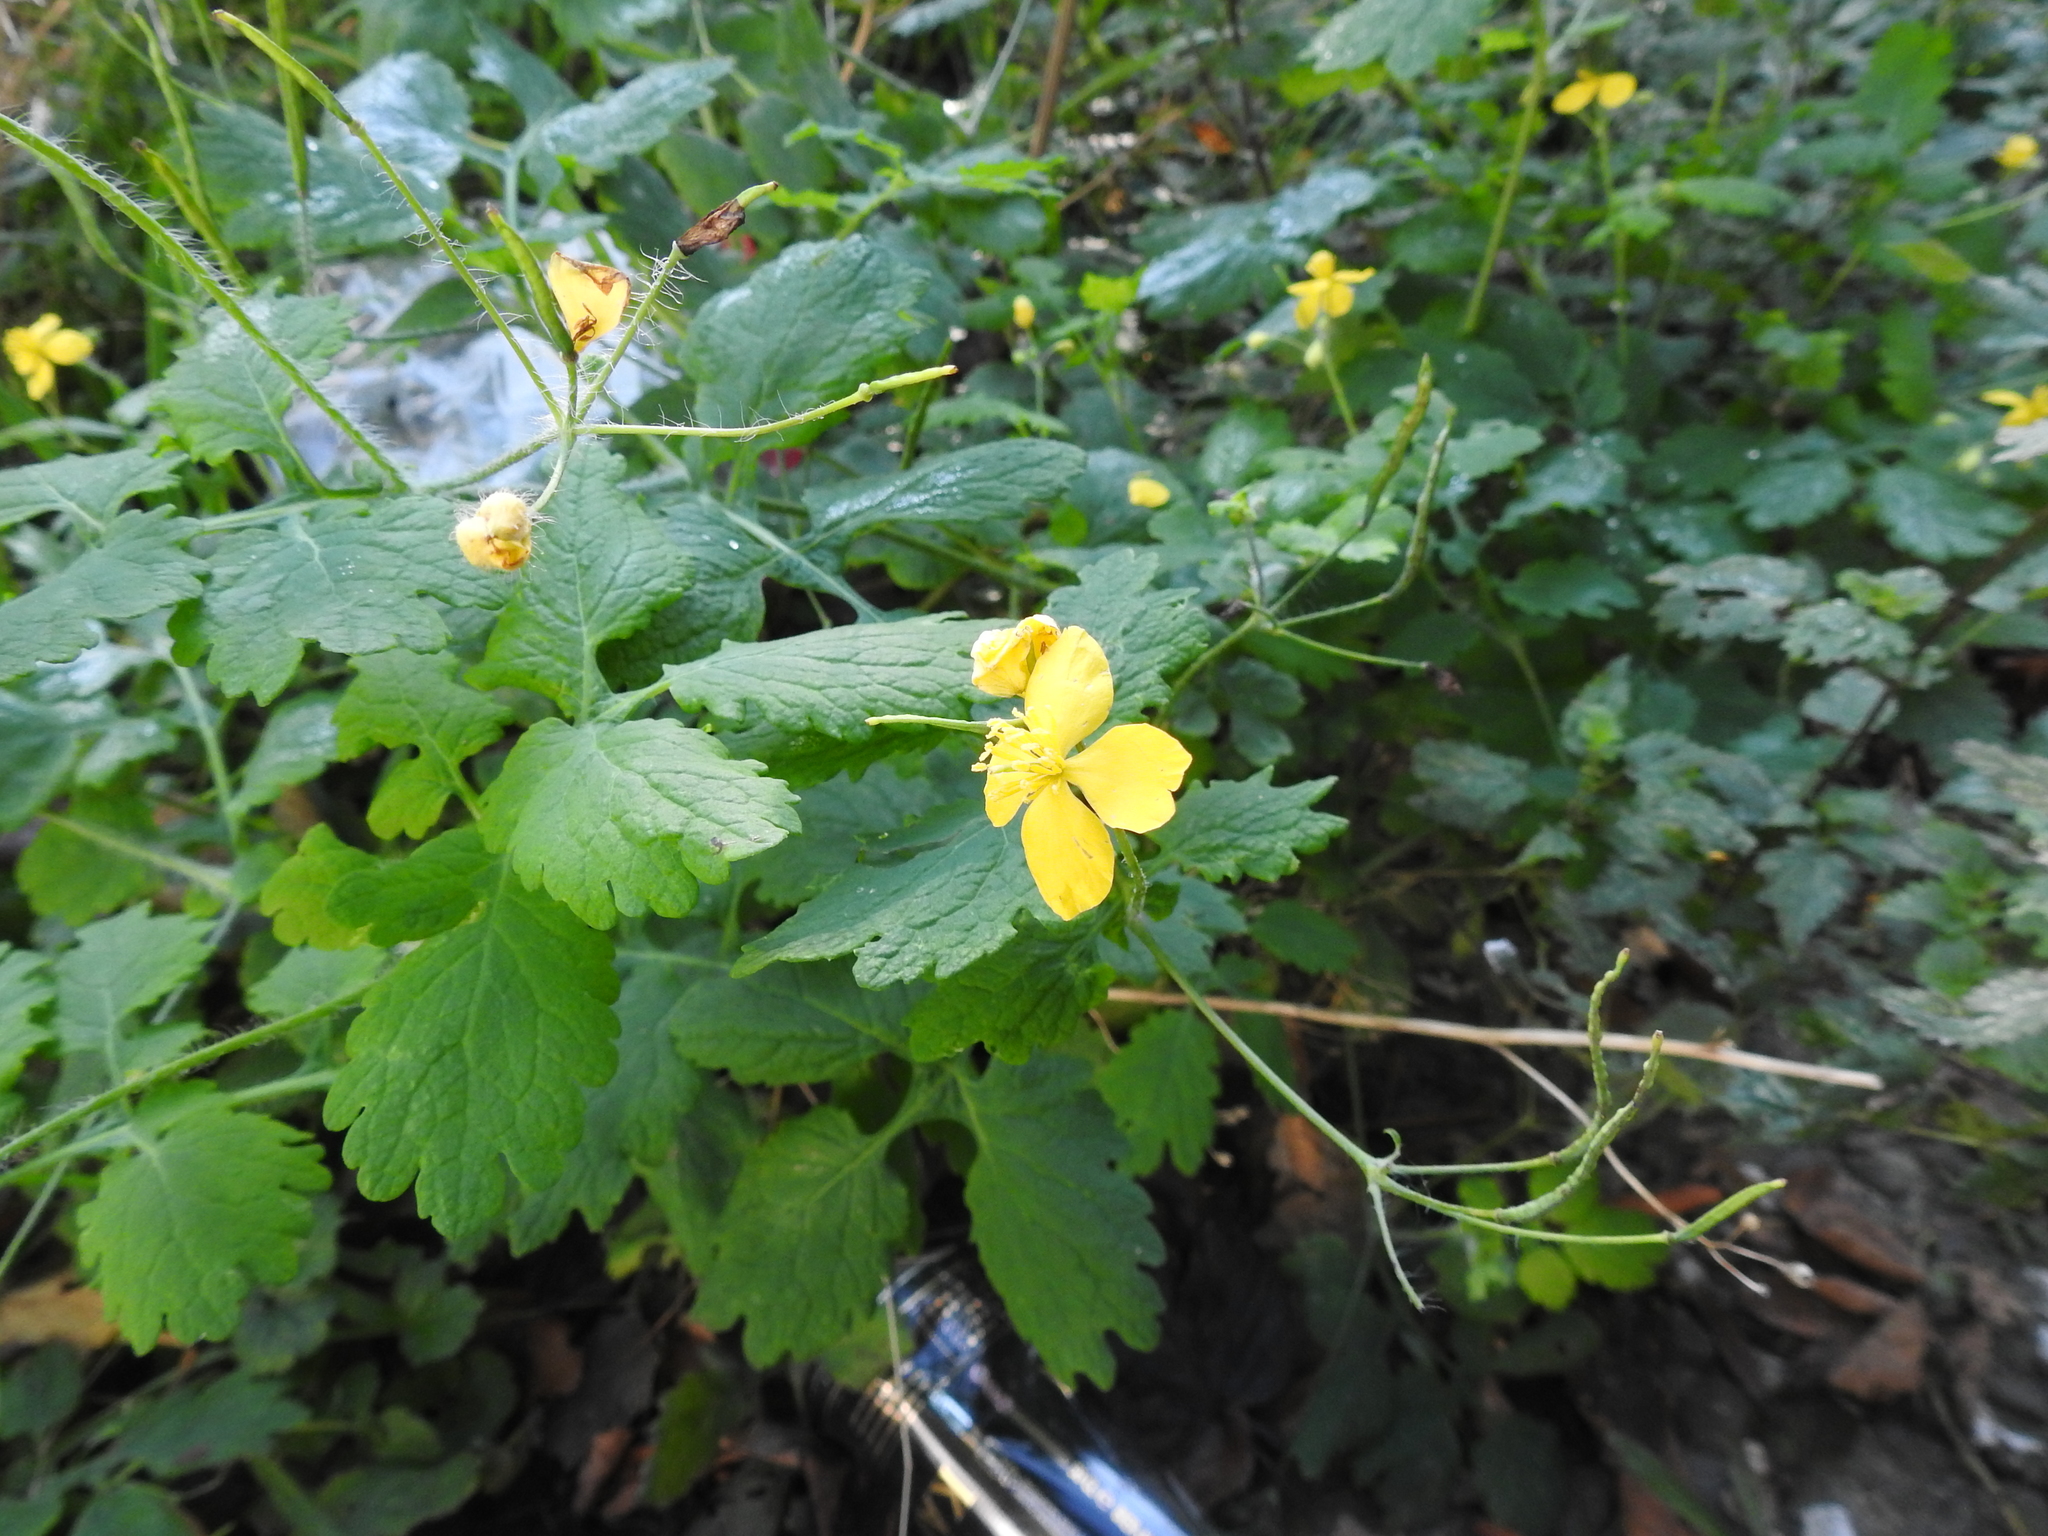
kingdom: Plantae
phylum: Tracheophyta
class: Magnoliopsida
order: Ranunculales
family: Papaveraceae
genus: Chelidonium
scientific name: Chelidonium majus
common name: Greater celandine
